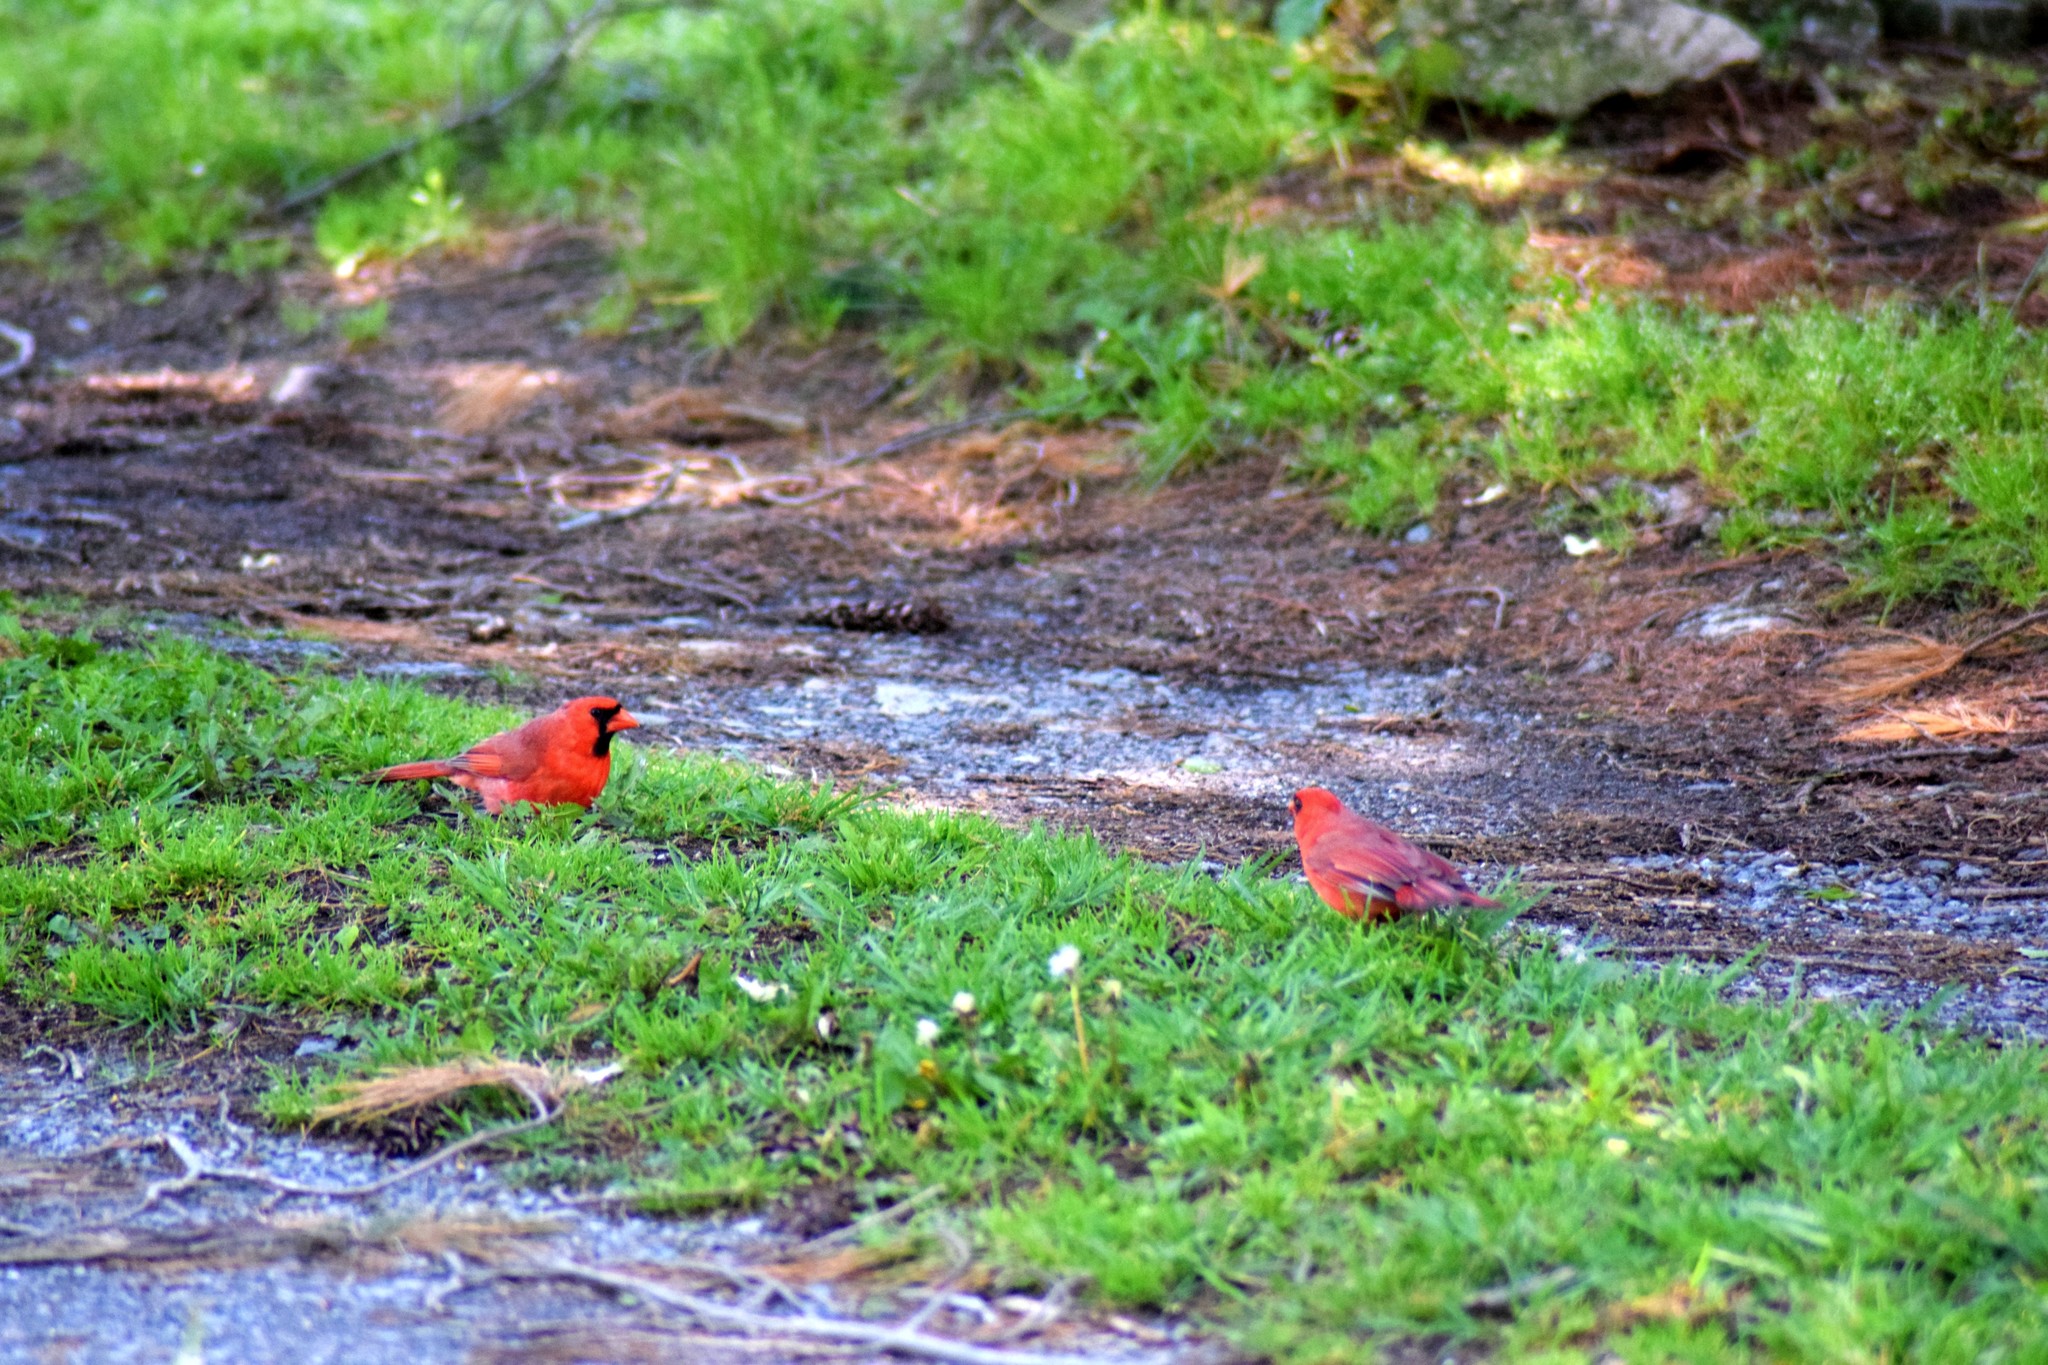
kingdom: Animalia
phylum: Chordata
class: Aves
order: Passeriformes
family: Cardinalidae
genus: Cardinalis
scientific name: Cardinalis cardinalis
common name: Northern cardinal
